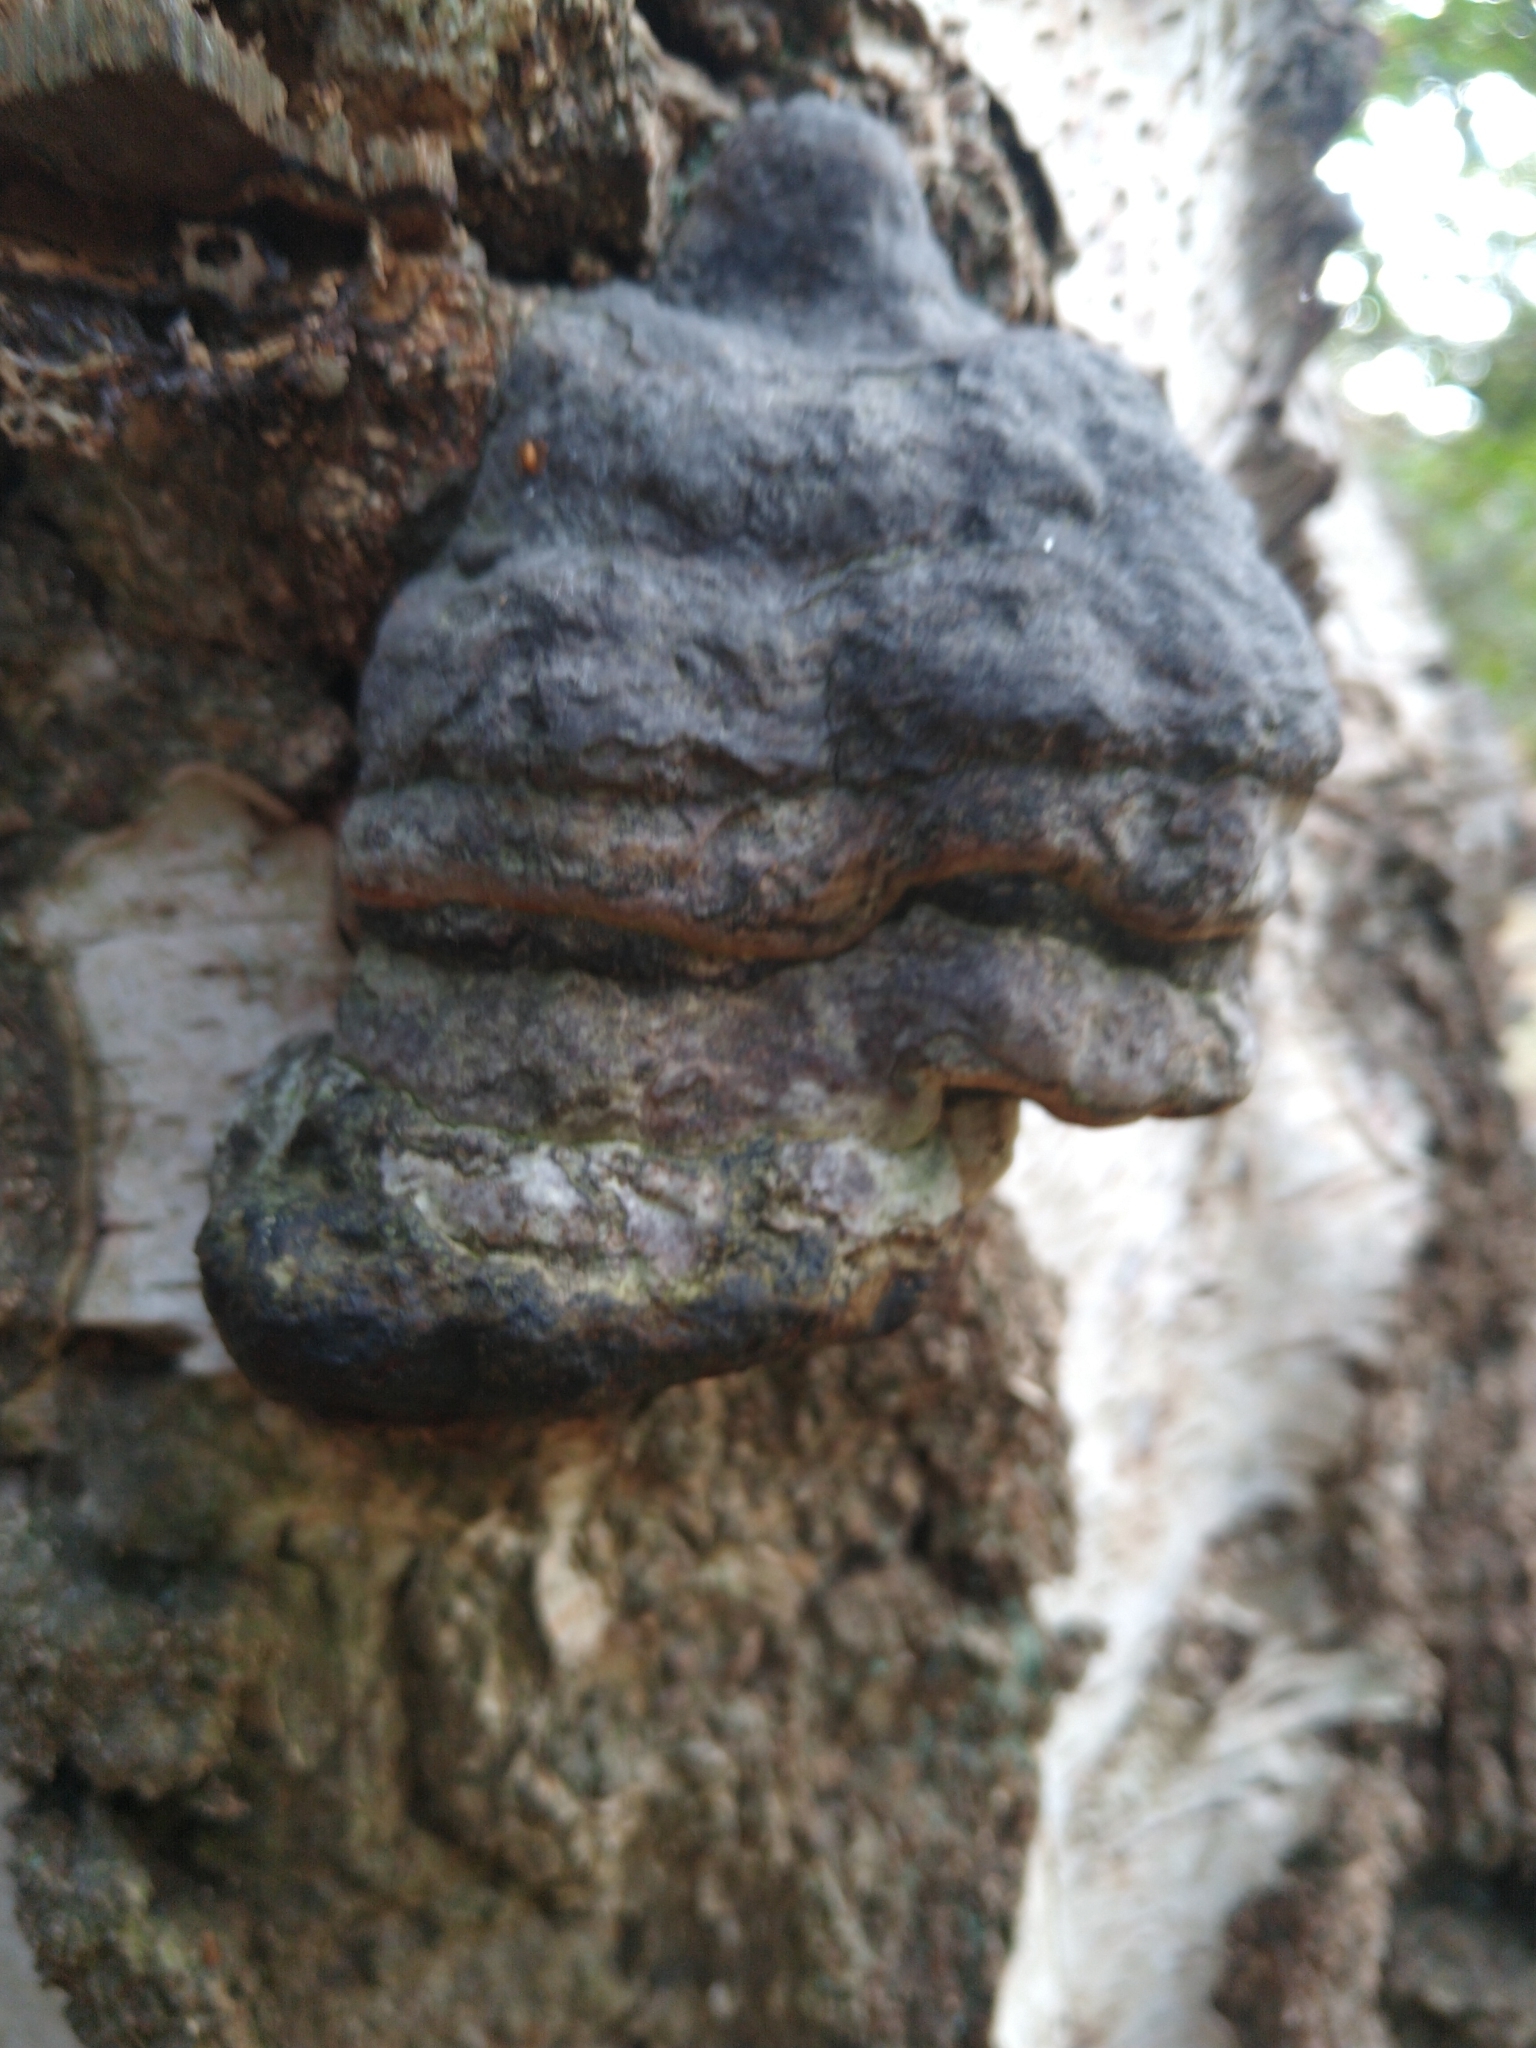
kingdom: Fungi
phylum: Basidiomycota
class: Agaricomycetes
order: Polyporales
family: Polyporaceae
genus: Fomes
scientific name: Fomes fomentarius
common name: Hoof fungus
